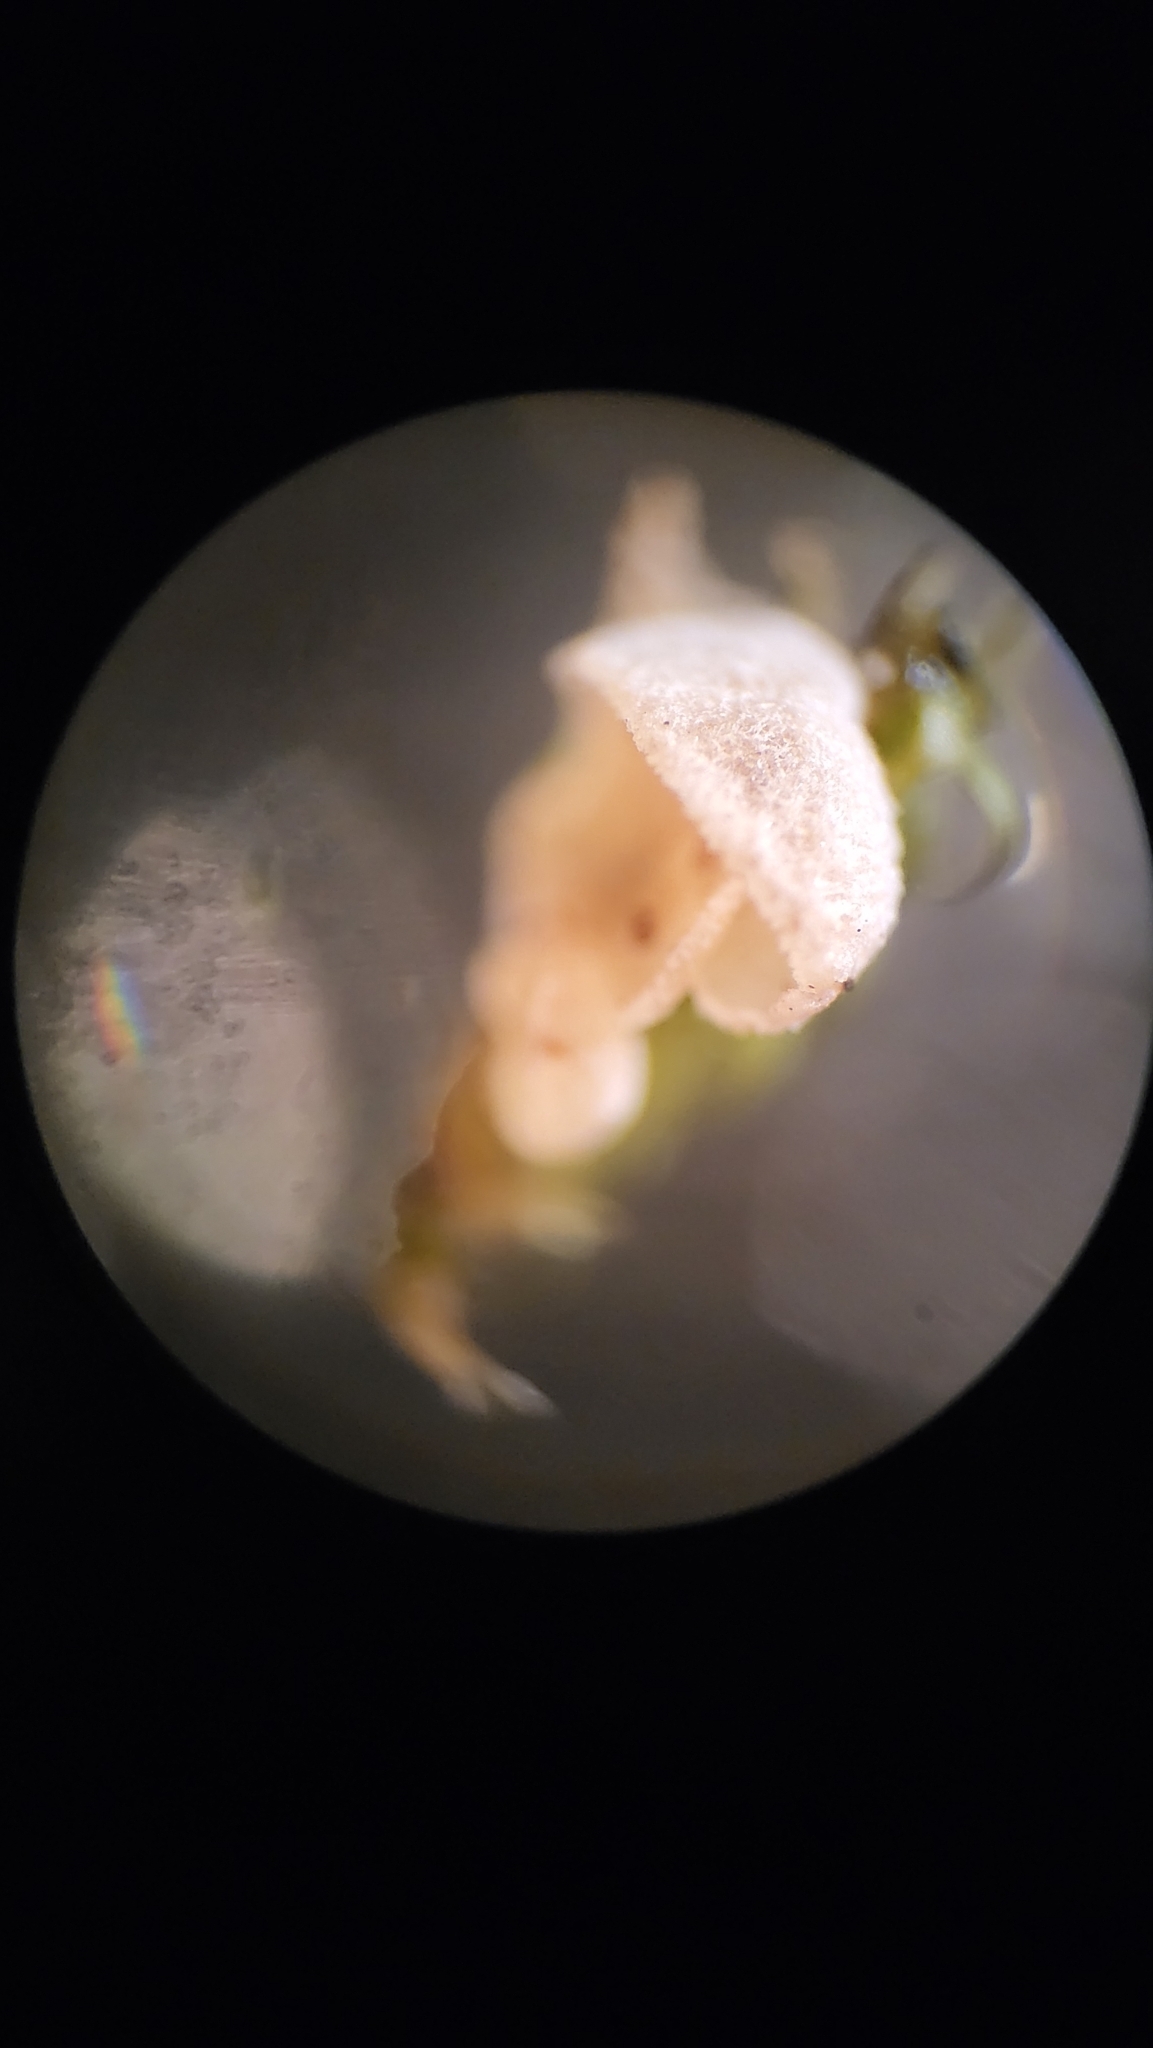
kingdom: Fungi
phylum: Basidiomycota
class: Agaricomycetes
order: Agaricales
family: Chromocyphellaceae
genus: Chromocyphella
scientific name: Chromocyphella muscicola
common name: Moss ear
